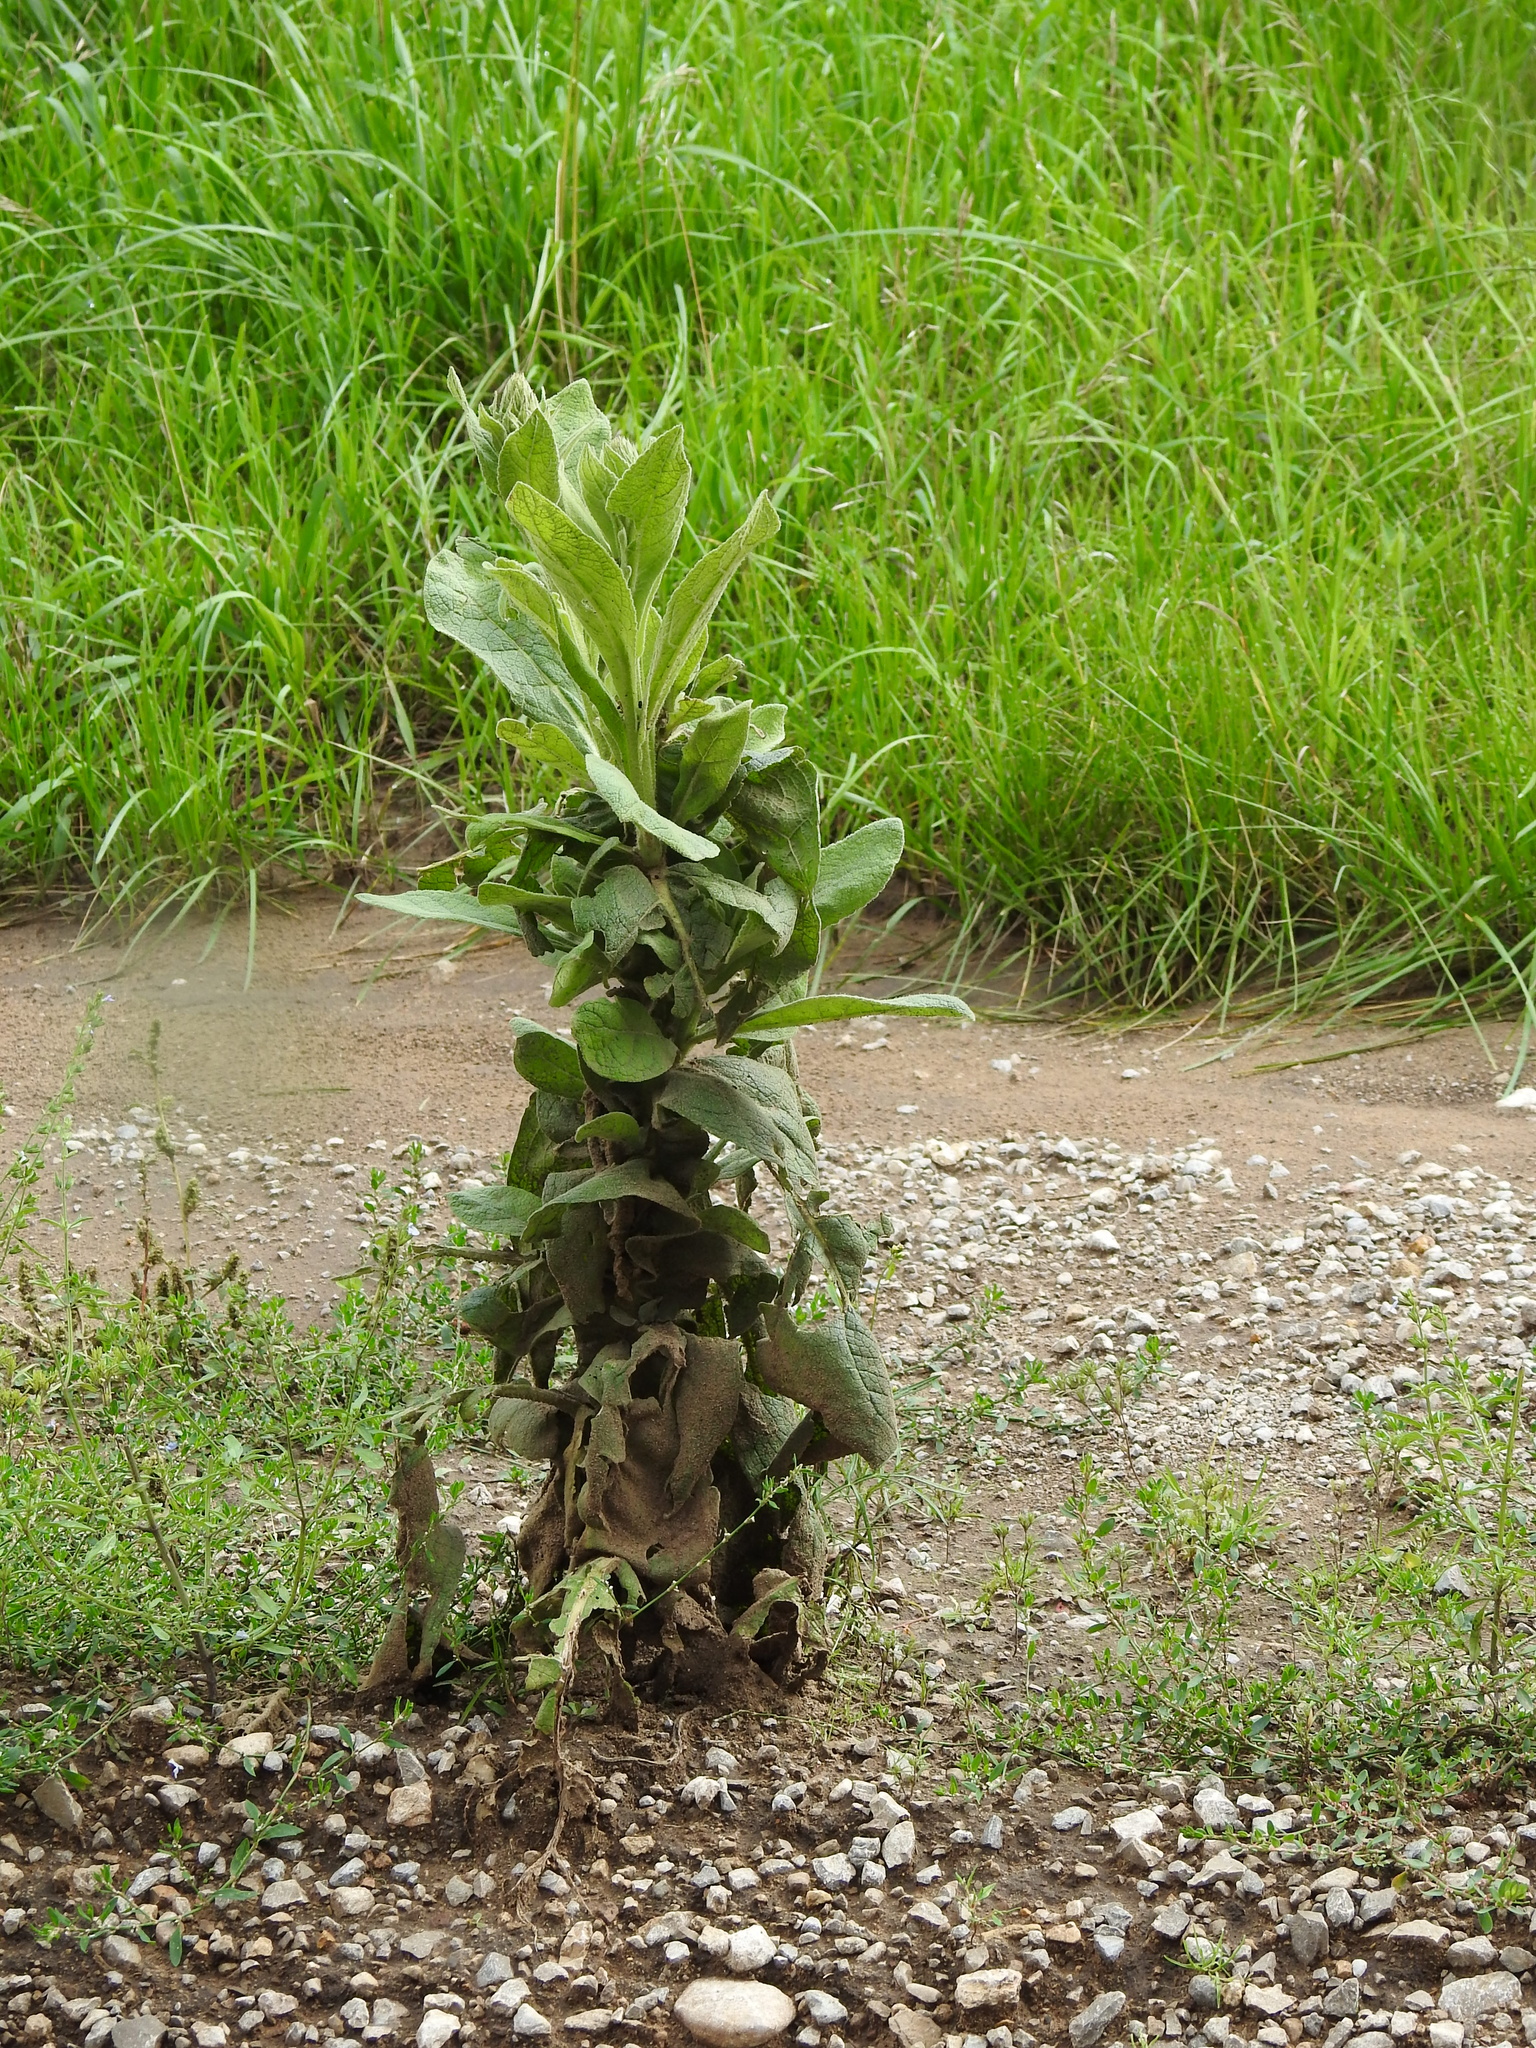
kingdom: Plantae
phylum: Tracheophyta
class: Magnoliopsida
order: Lamiales
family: Scrophulariaceae
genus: Verbascum
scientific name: Verbascum thapsus
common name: Common mullein
